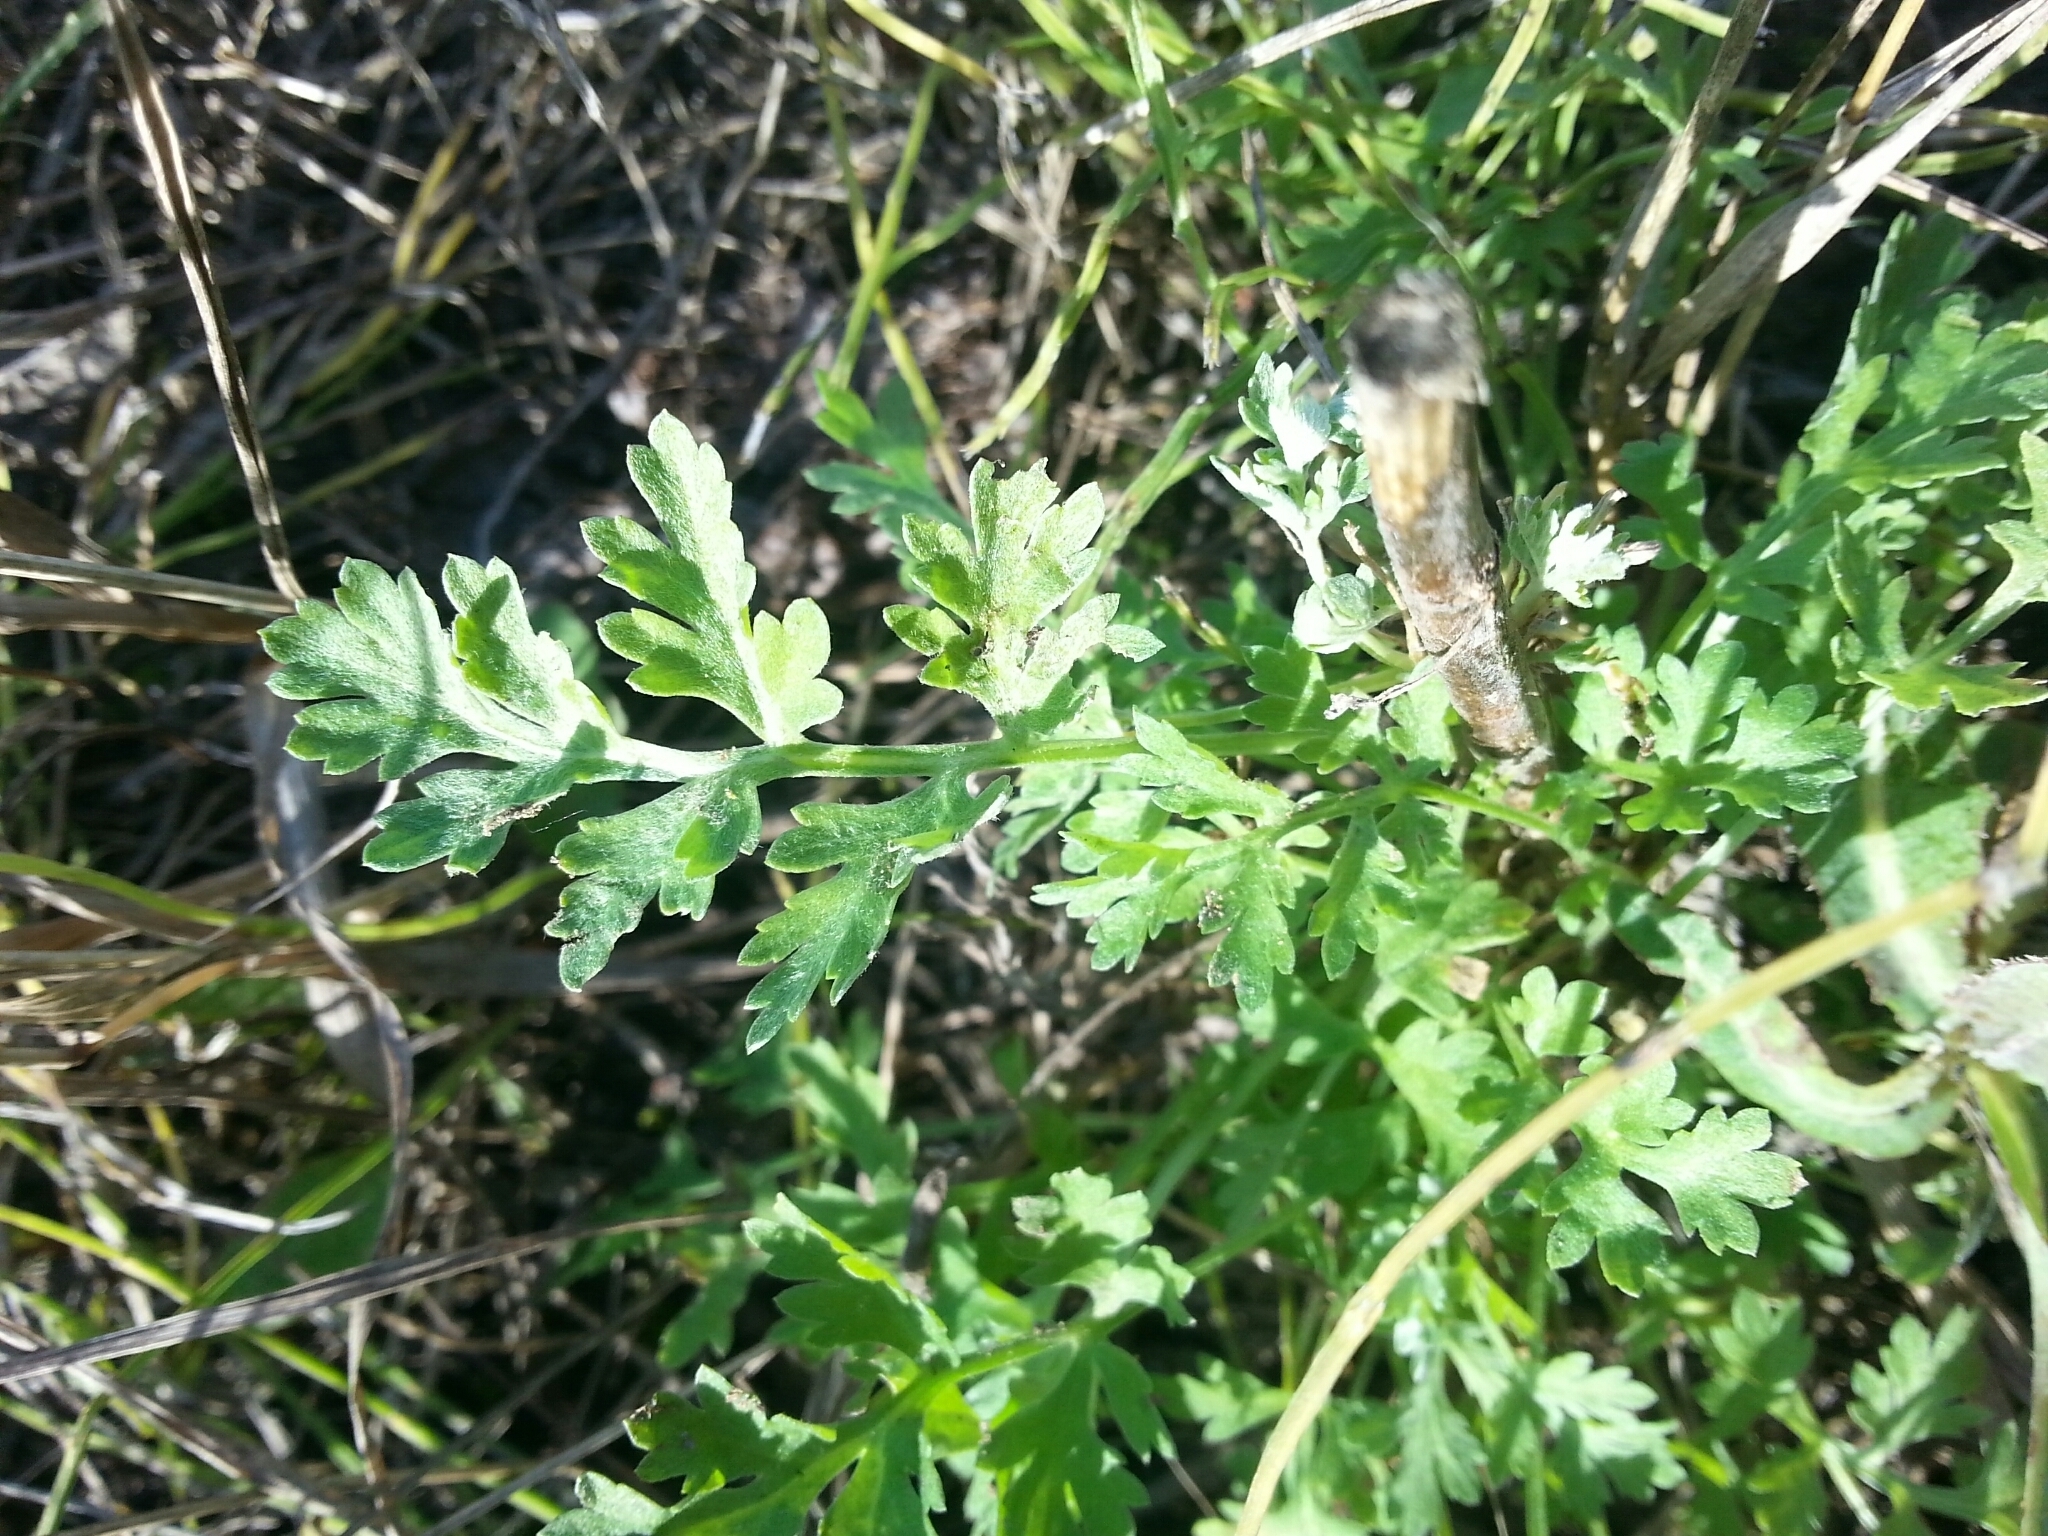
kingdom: Plantae
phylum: Tracheophyta
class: Magnoliopsida
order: Asterales
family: Asteraceae
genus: Artemisia
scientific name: Artemisia absinthium
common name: Wormwood
